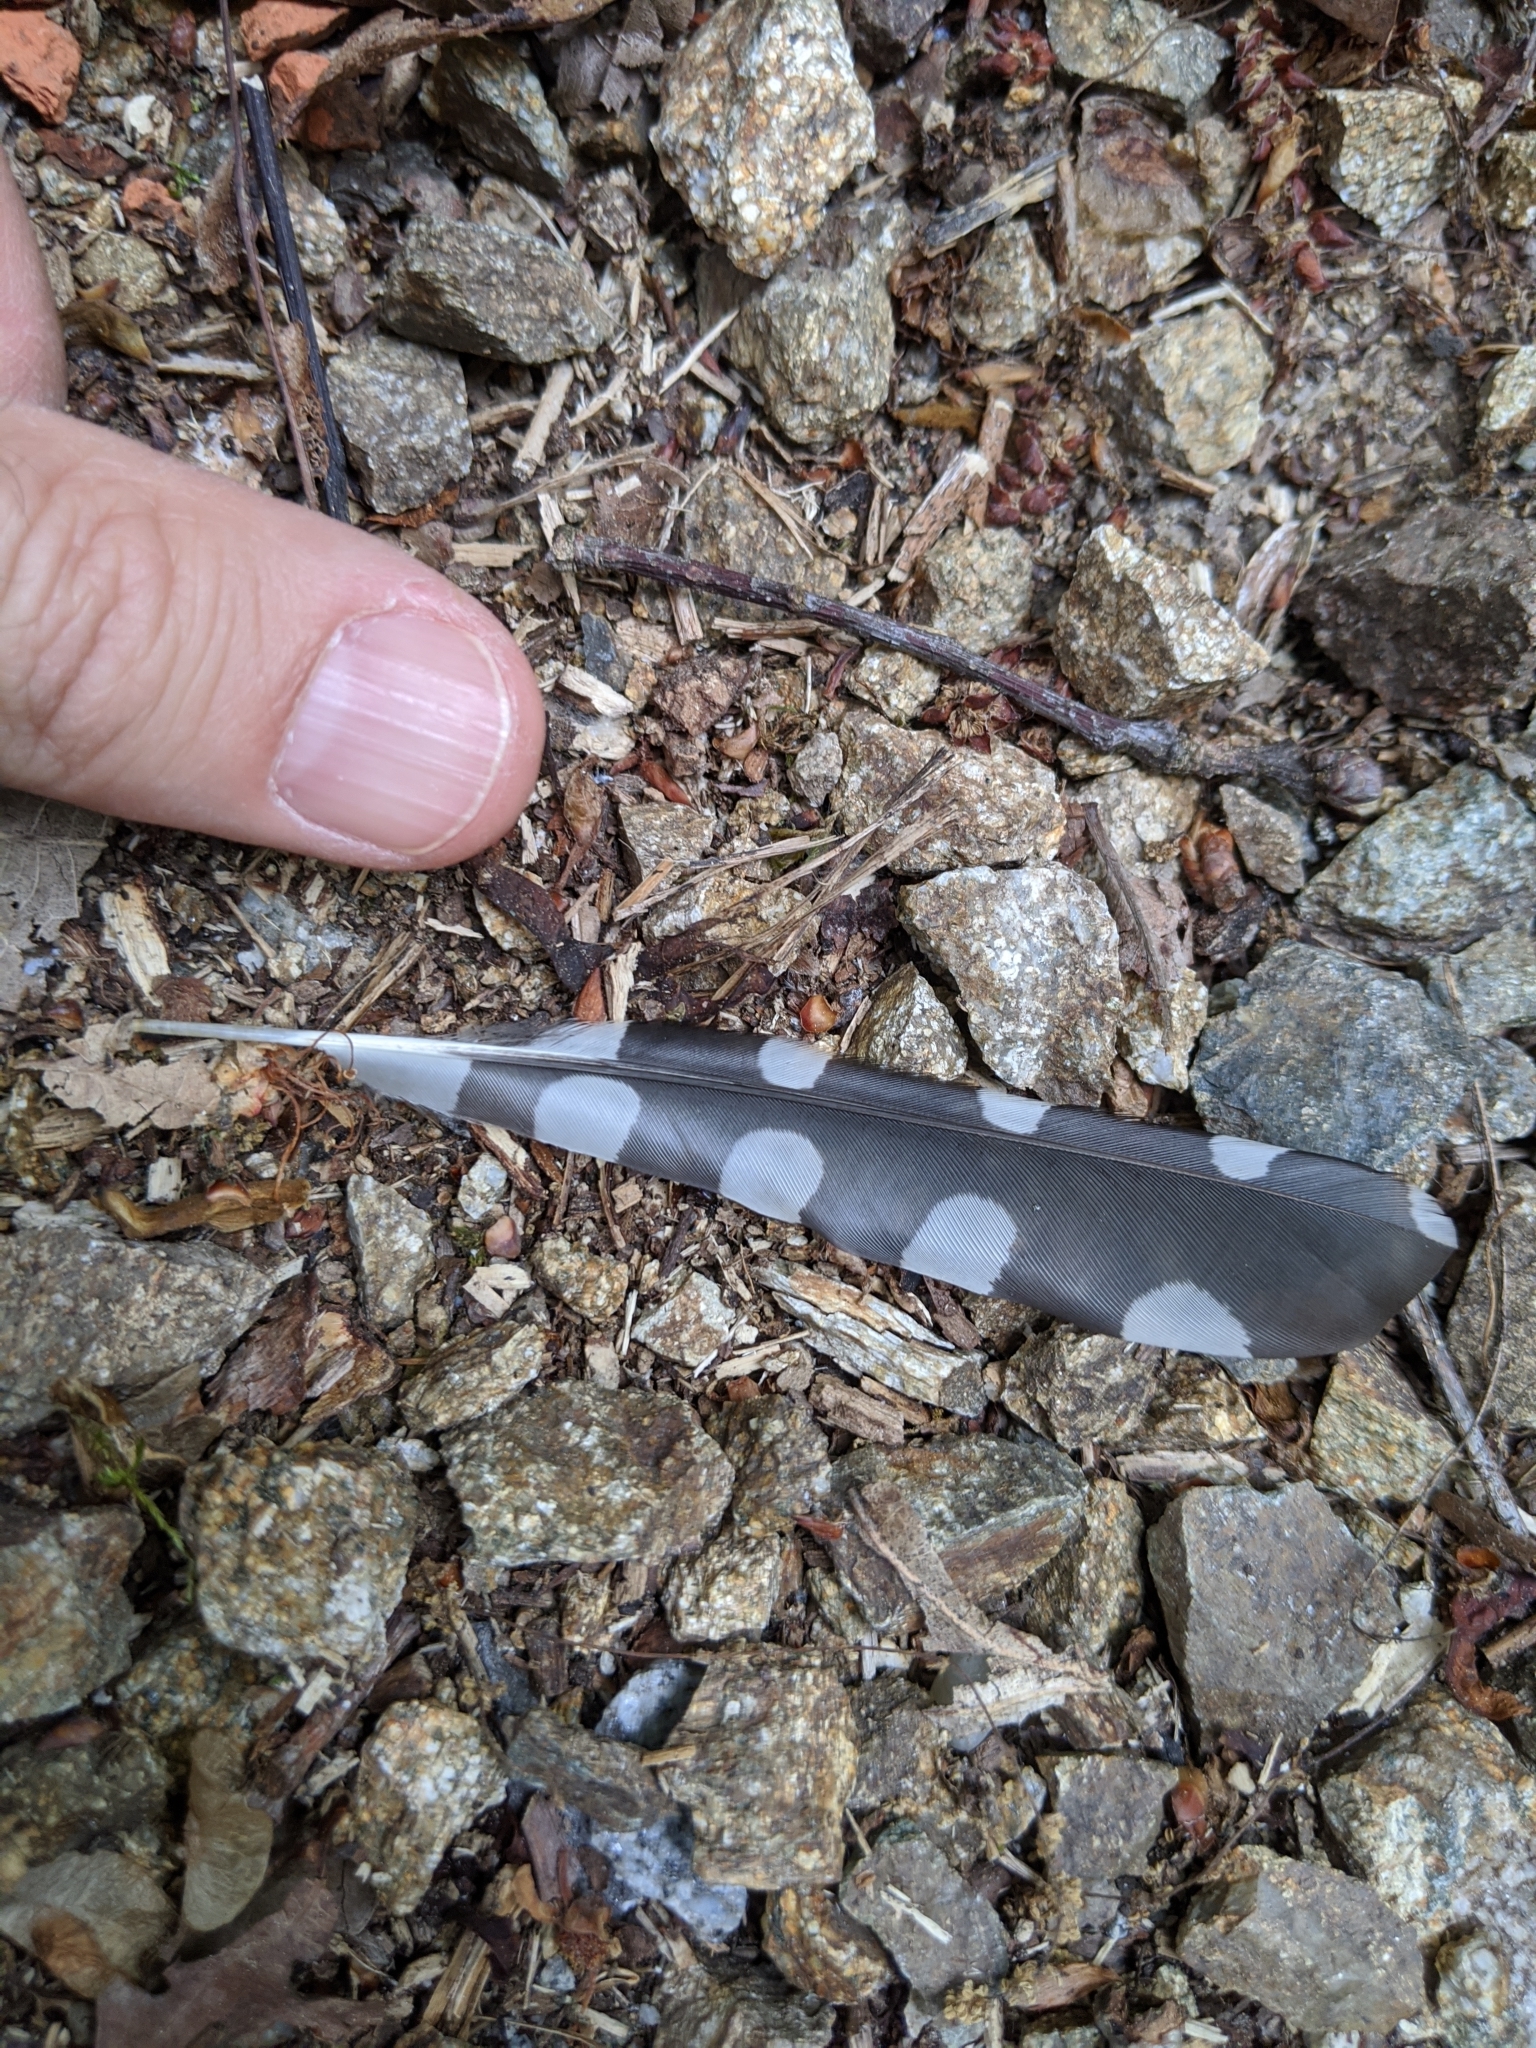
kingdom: Animalia
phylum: Chordata
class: Aves
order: Piciformes
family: Picidae
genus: Dendrocopos
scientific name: Dendrocopos major
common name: Great spotted woodpecker
